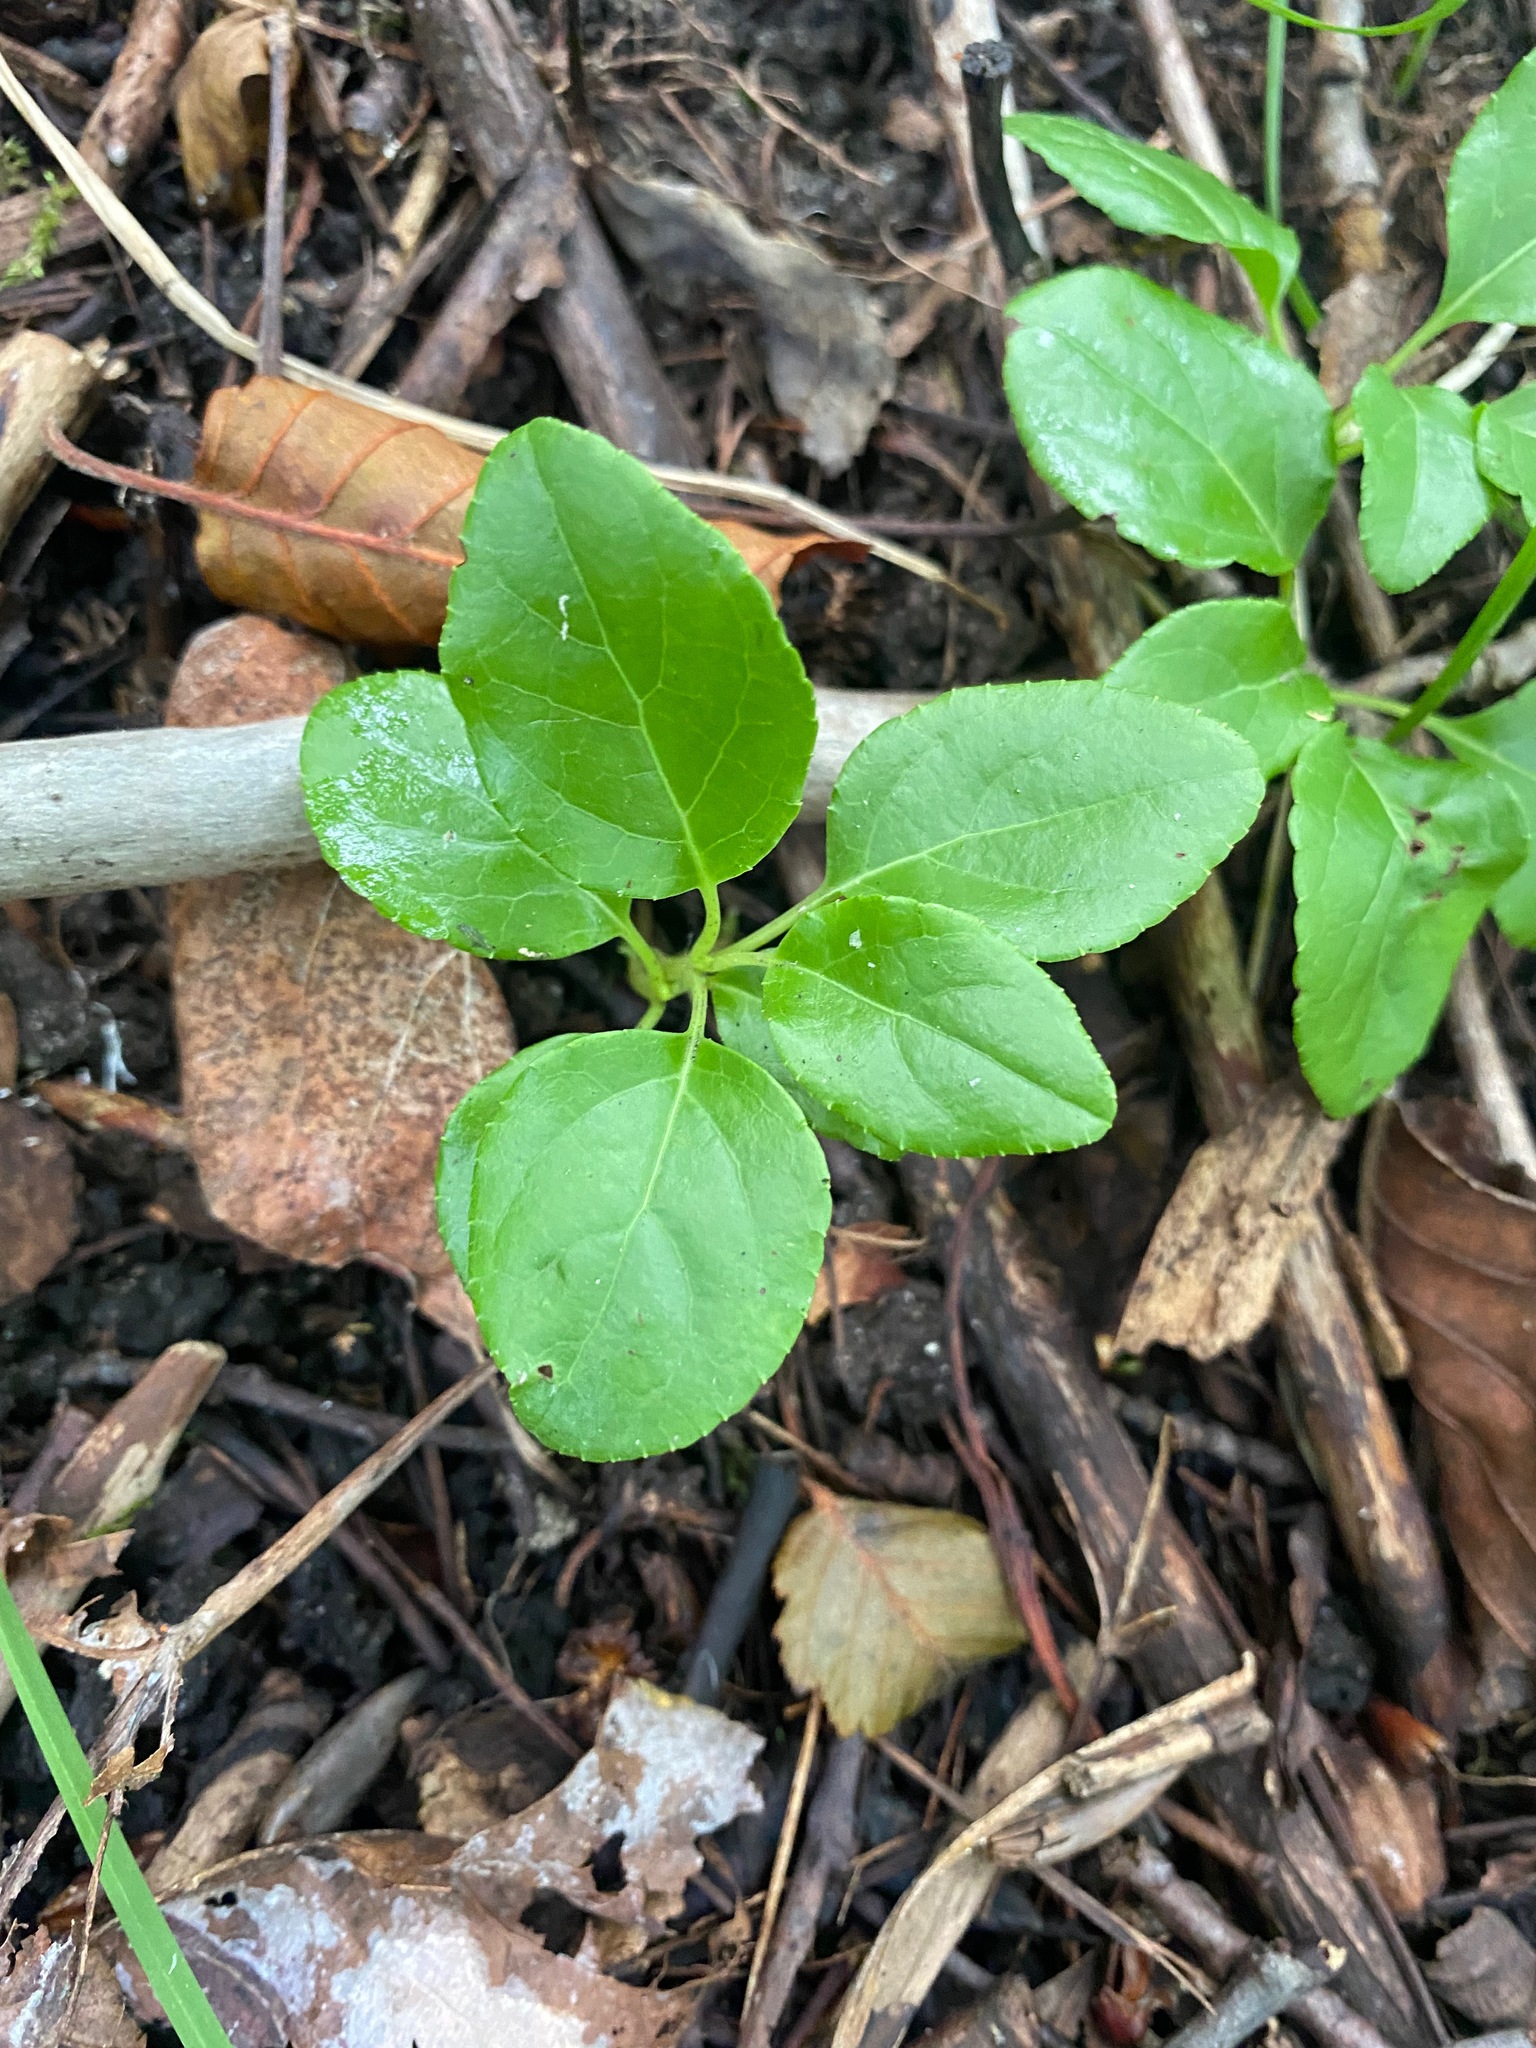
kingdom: Plantae
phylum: Tracheophyta
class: Magnoliopsida
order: Ericales
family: Ericaceae
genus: Orthilia
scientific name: Orthilia secunda
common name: One-sided orthilia
